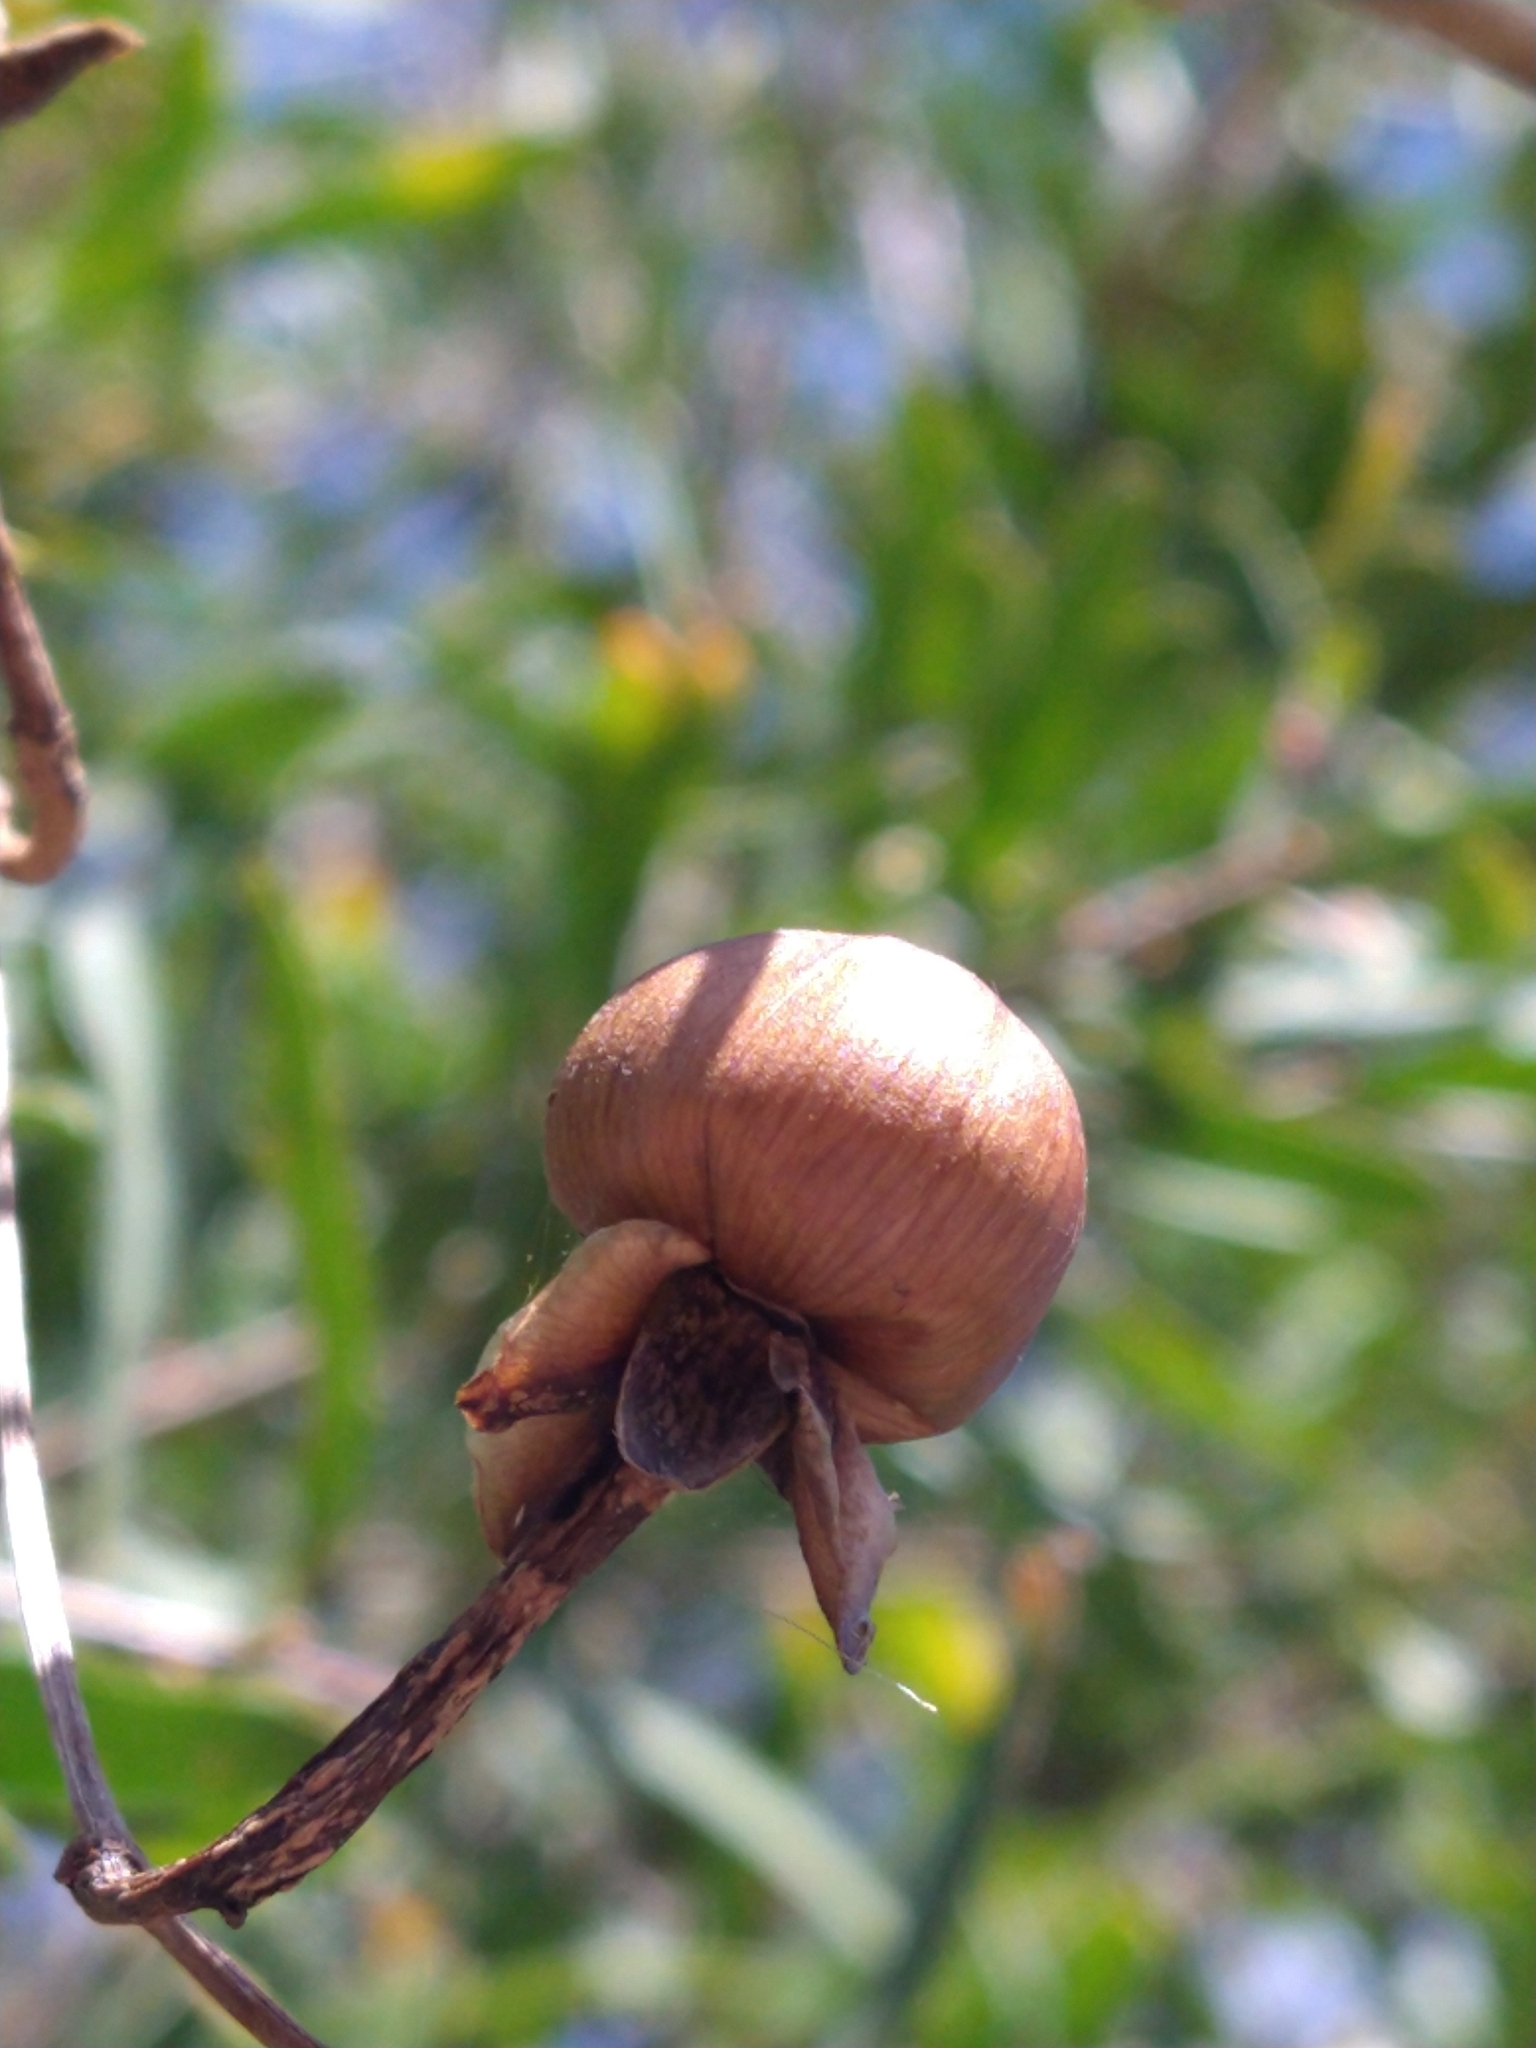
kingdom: Plantae
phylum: Tracheophyta
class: Magnoliopsida
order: Sapindales
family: Anacardiaceae
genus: Schinus
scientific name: Schinus longifolia
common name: Longleaf peppertree
